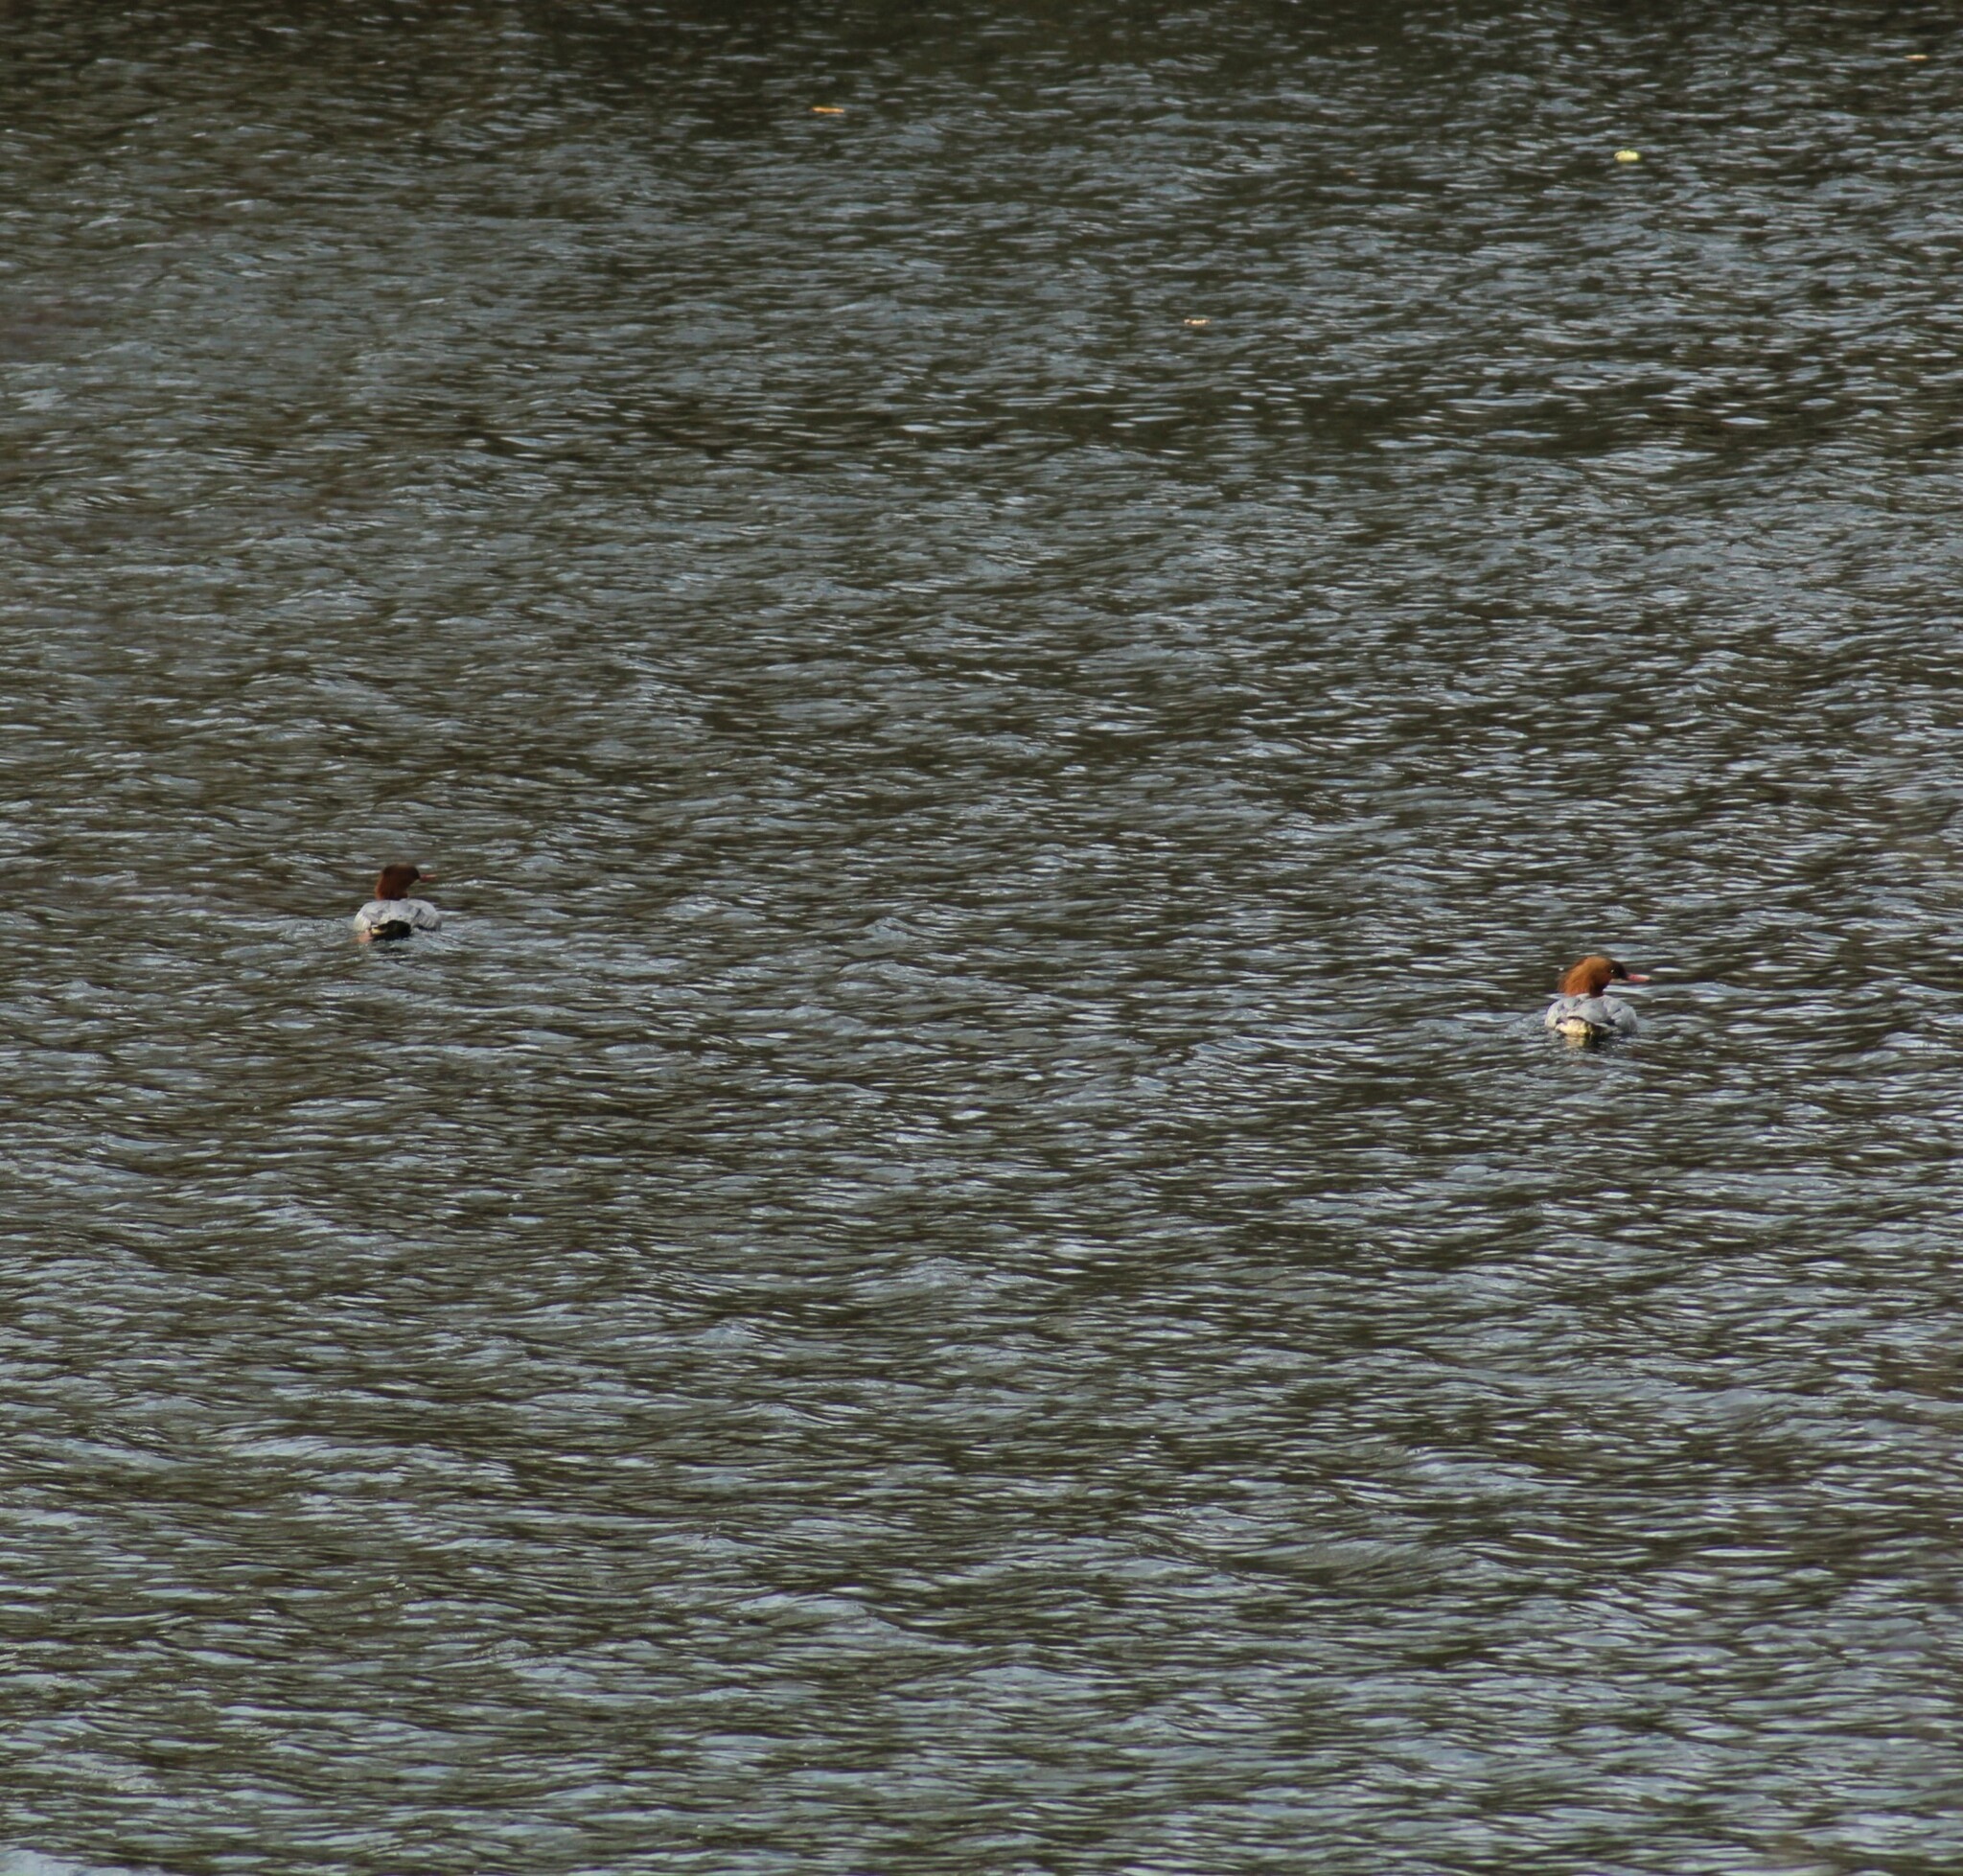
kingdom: Animalia
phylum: Chordata
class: Aves
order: Anseriformes
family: Anatidae
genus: Mergus
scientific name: Mergus merganser
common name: Common merganser
